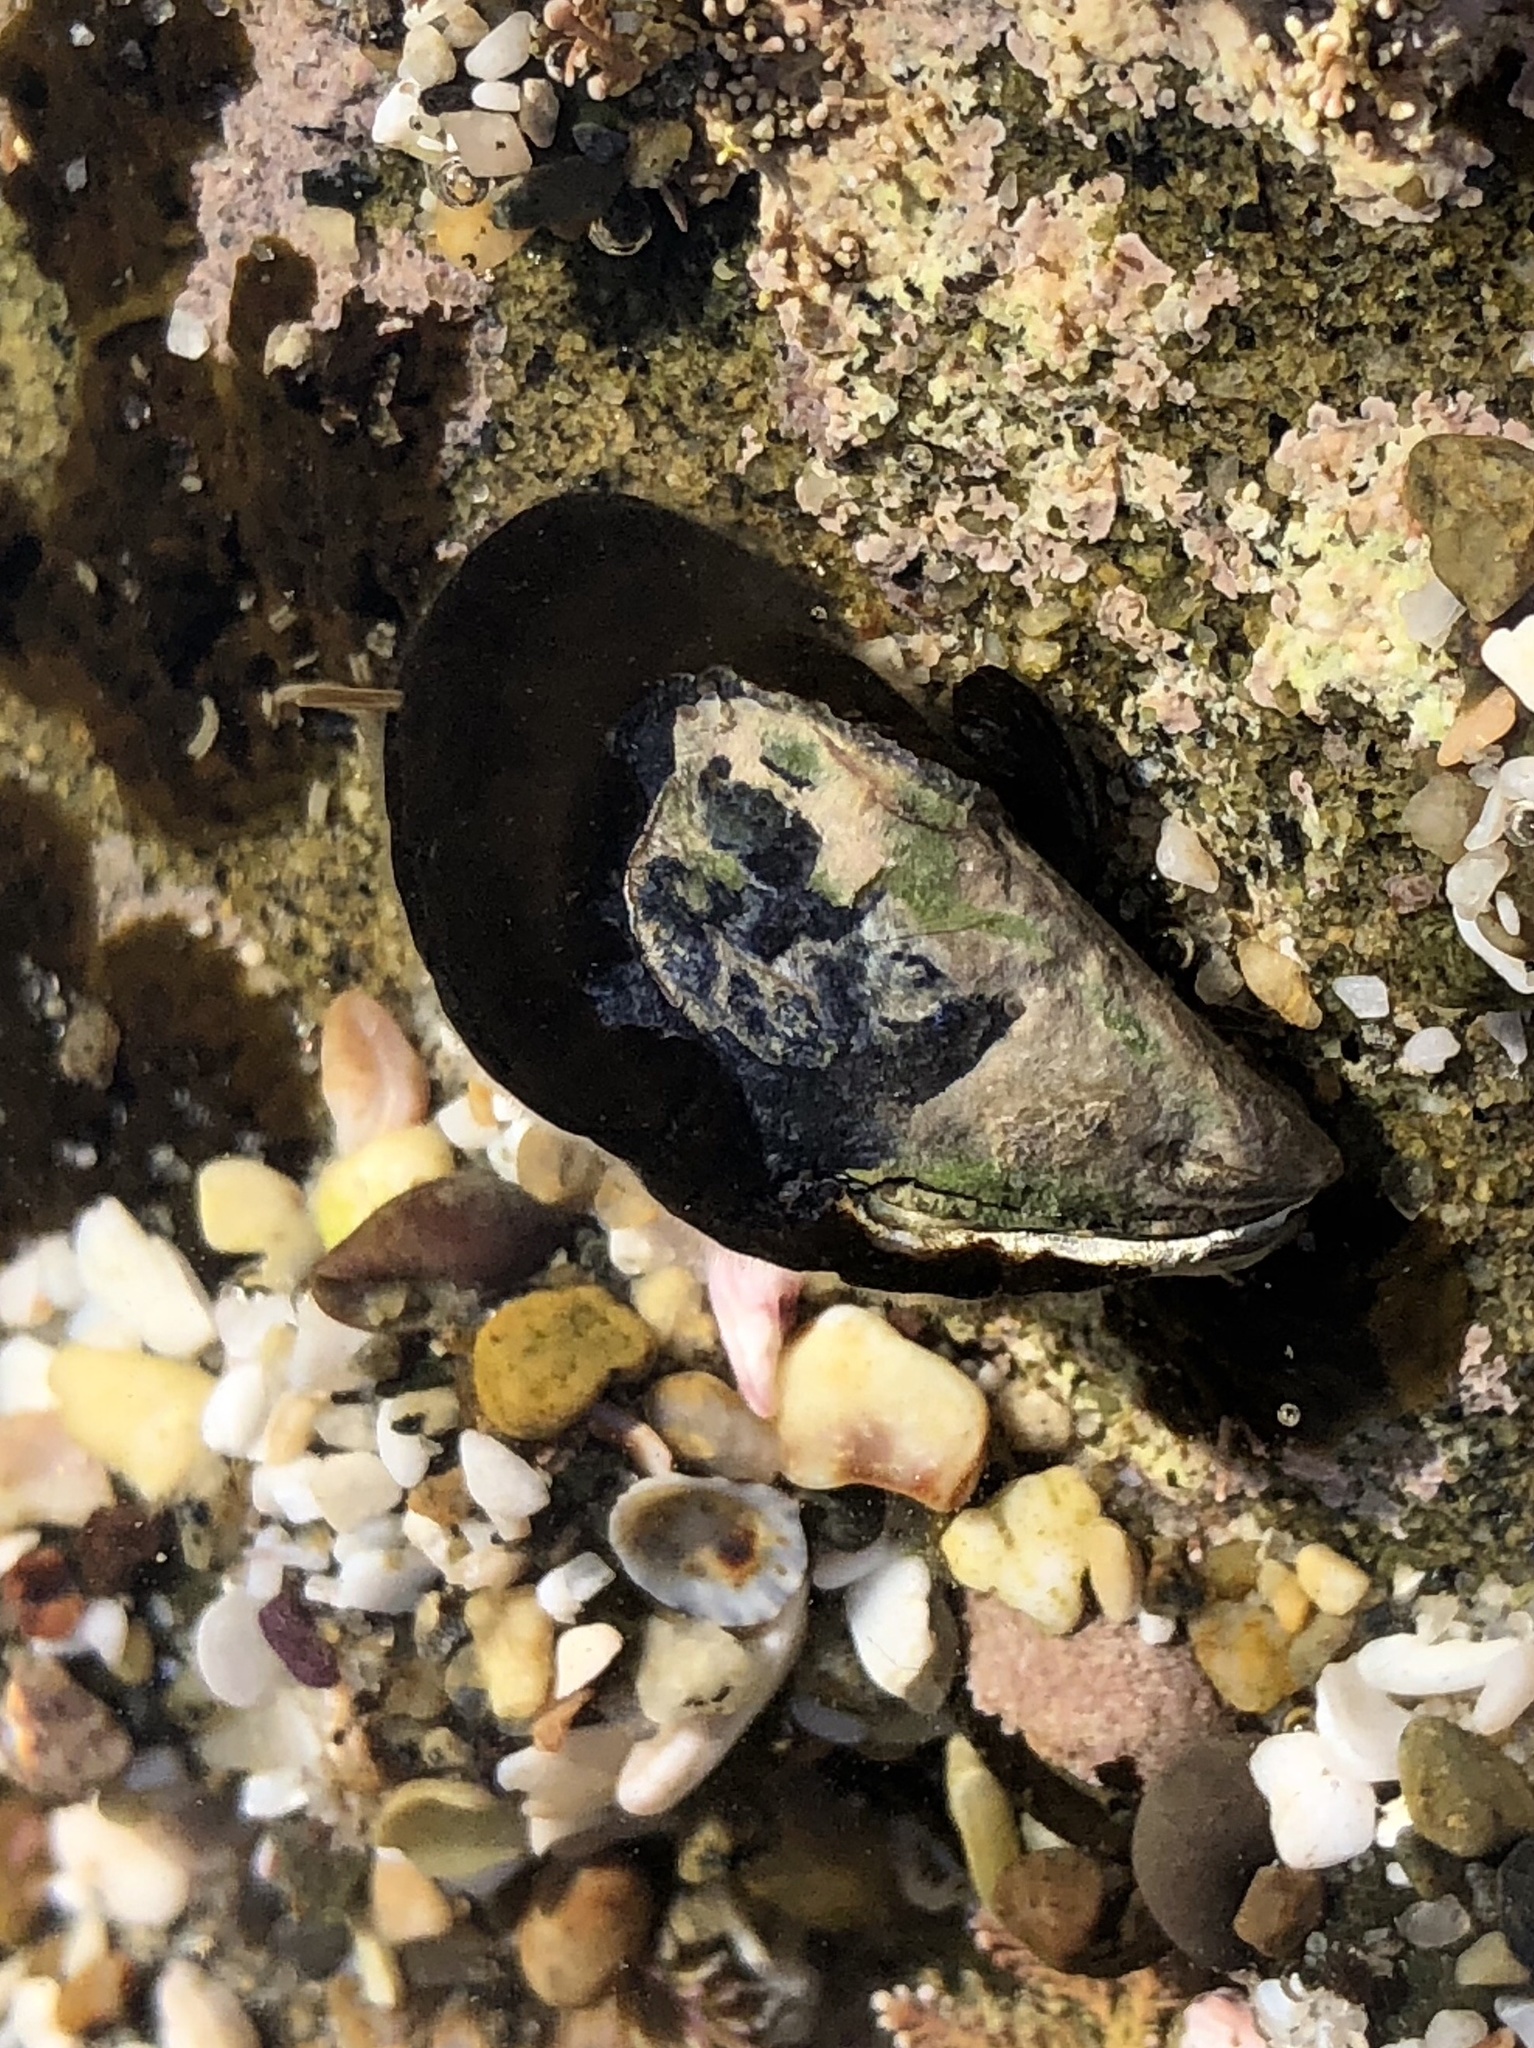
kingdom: Animalia
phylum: Mollusca
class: Bivalvia
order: Mytilida
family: Mytilidae
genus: Mytilus
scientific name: Mytilus californianus
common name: California mussel
